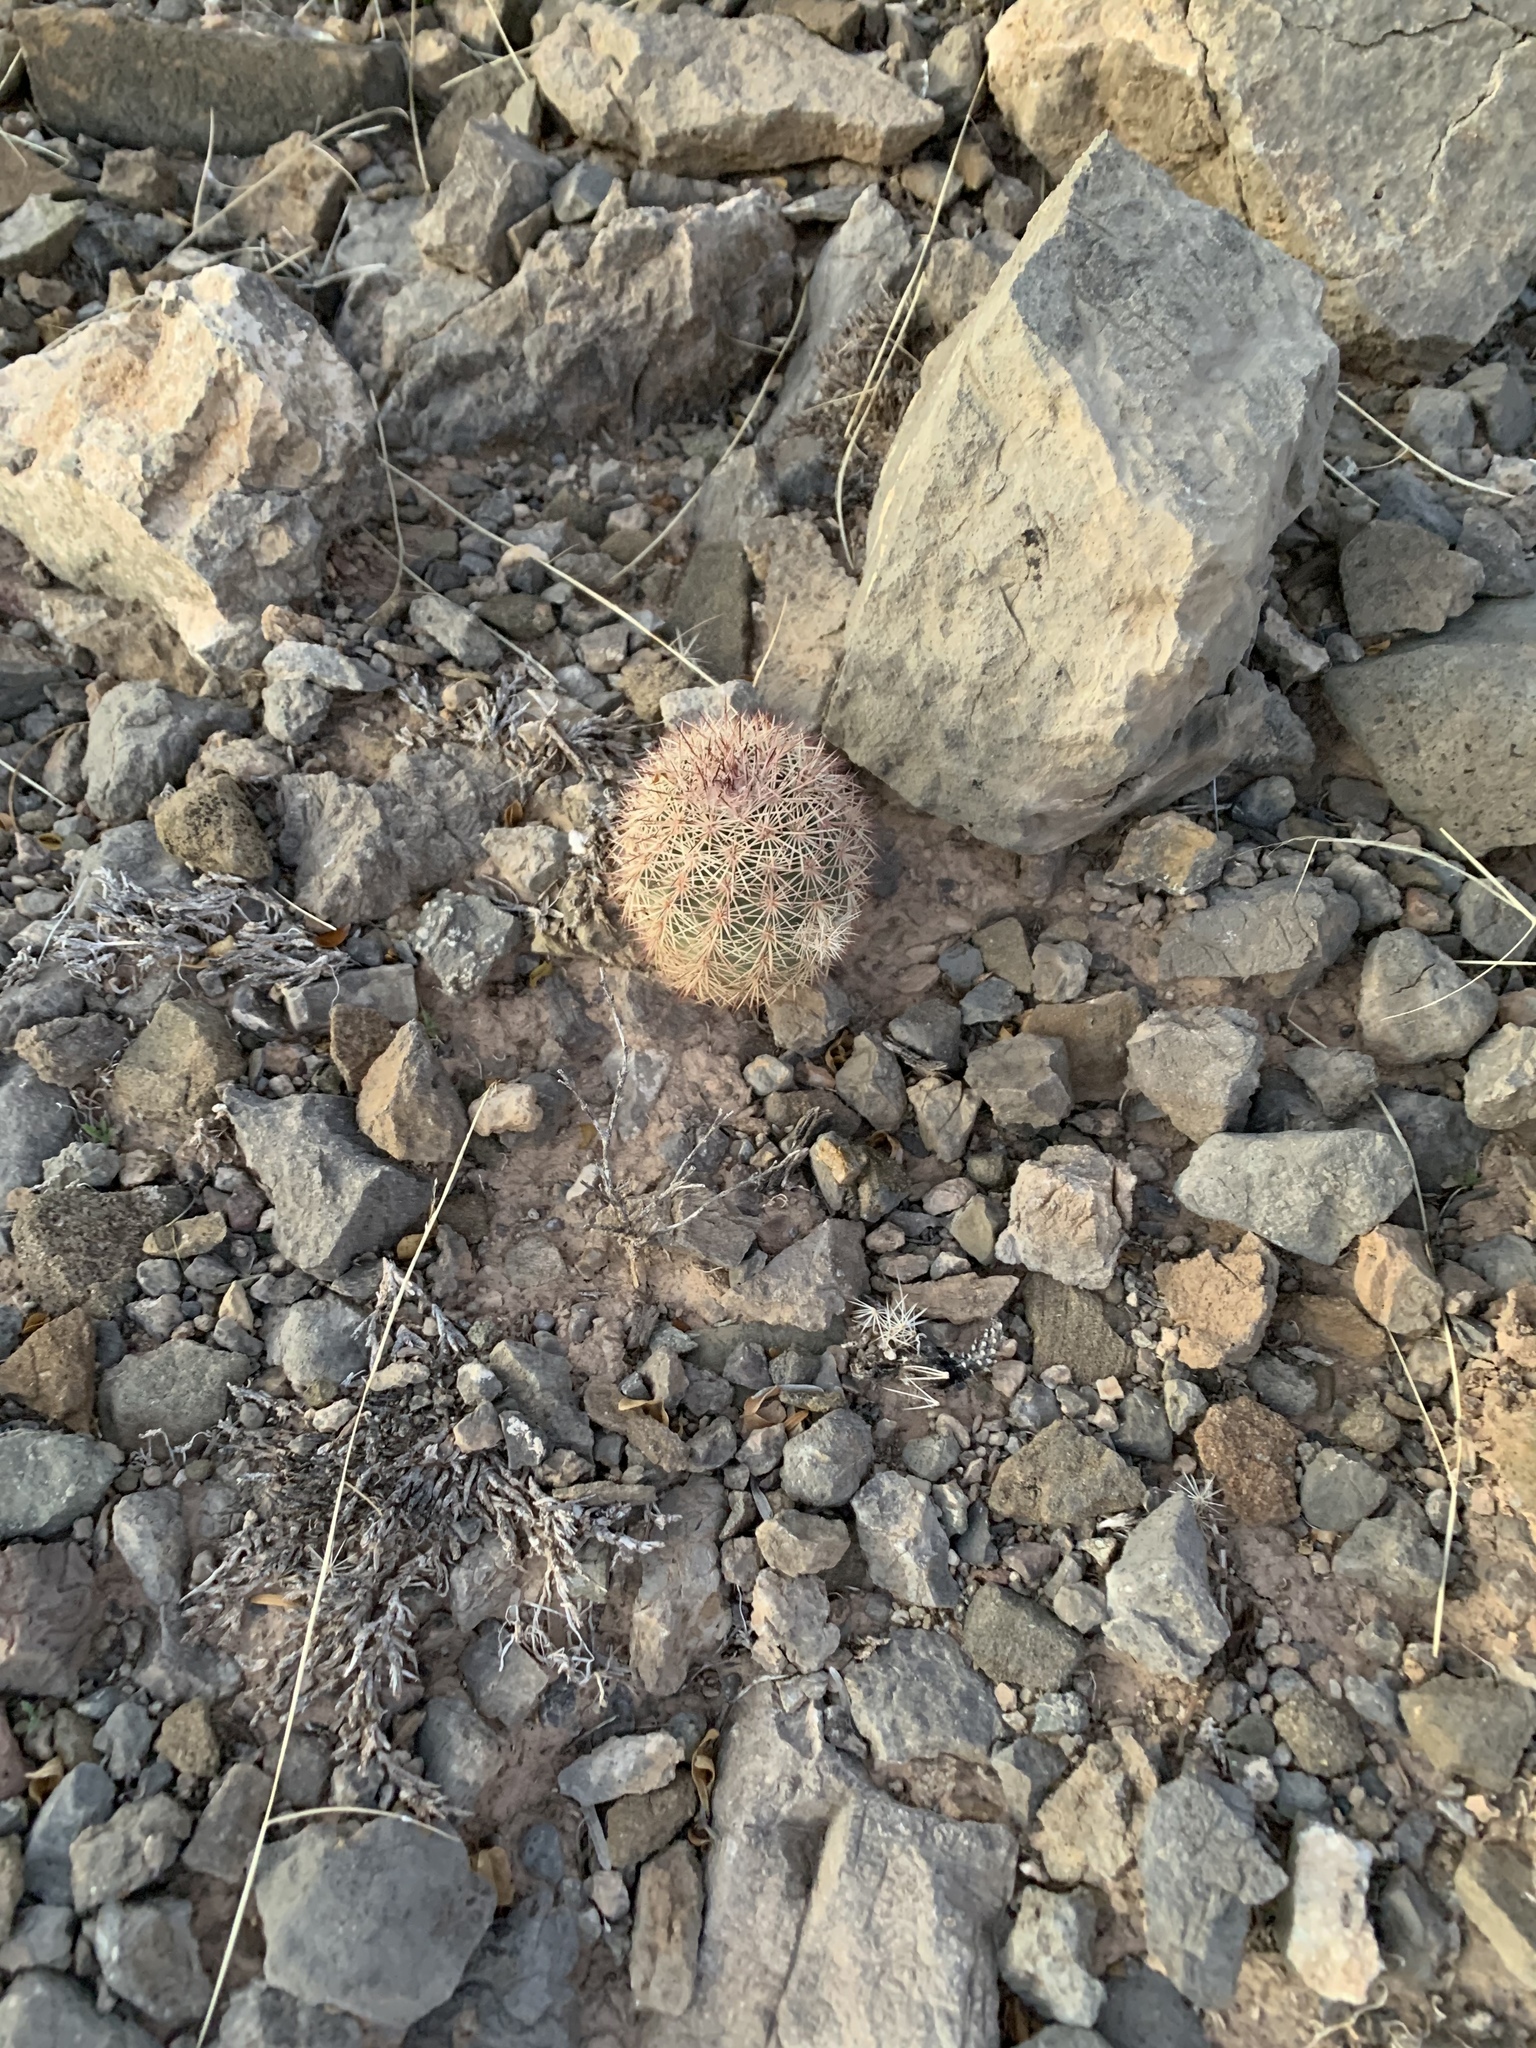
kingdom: Plantae
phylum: Tracheophyta
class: Magnoliopsida
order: Caryophyllales
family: Cactaceae
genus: Echinocereus
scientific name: Echinocereus dasyacanthus
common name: Spiny hedgehog cactus
